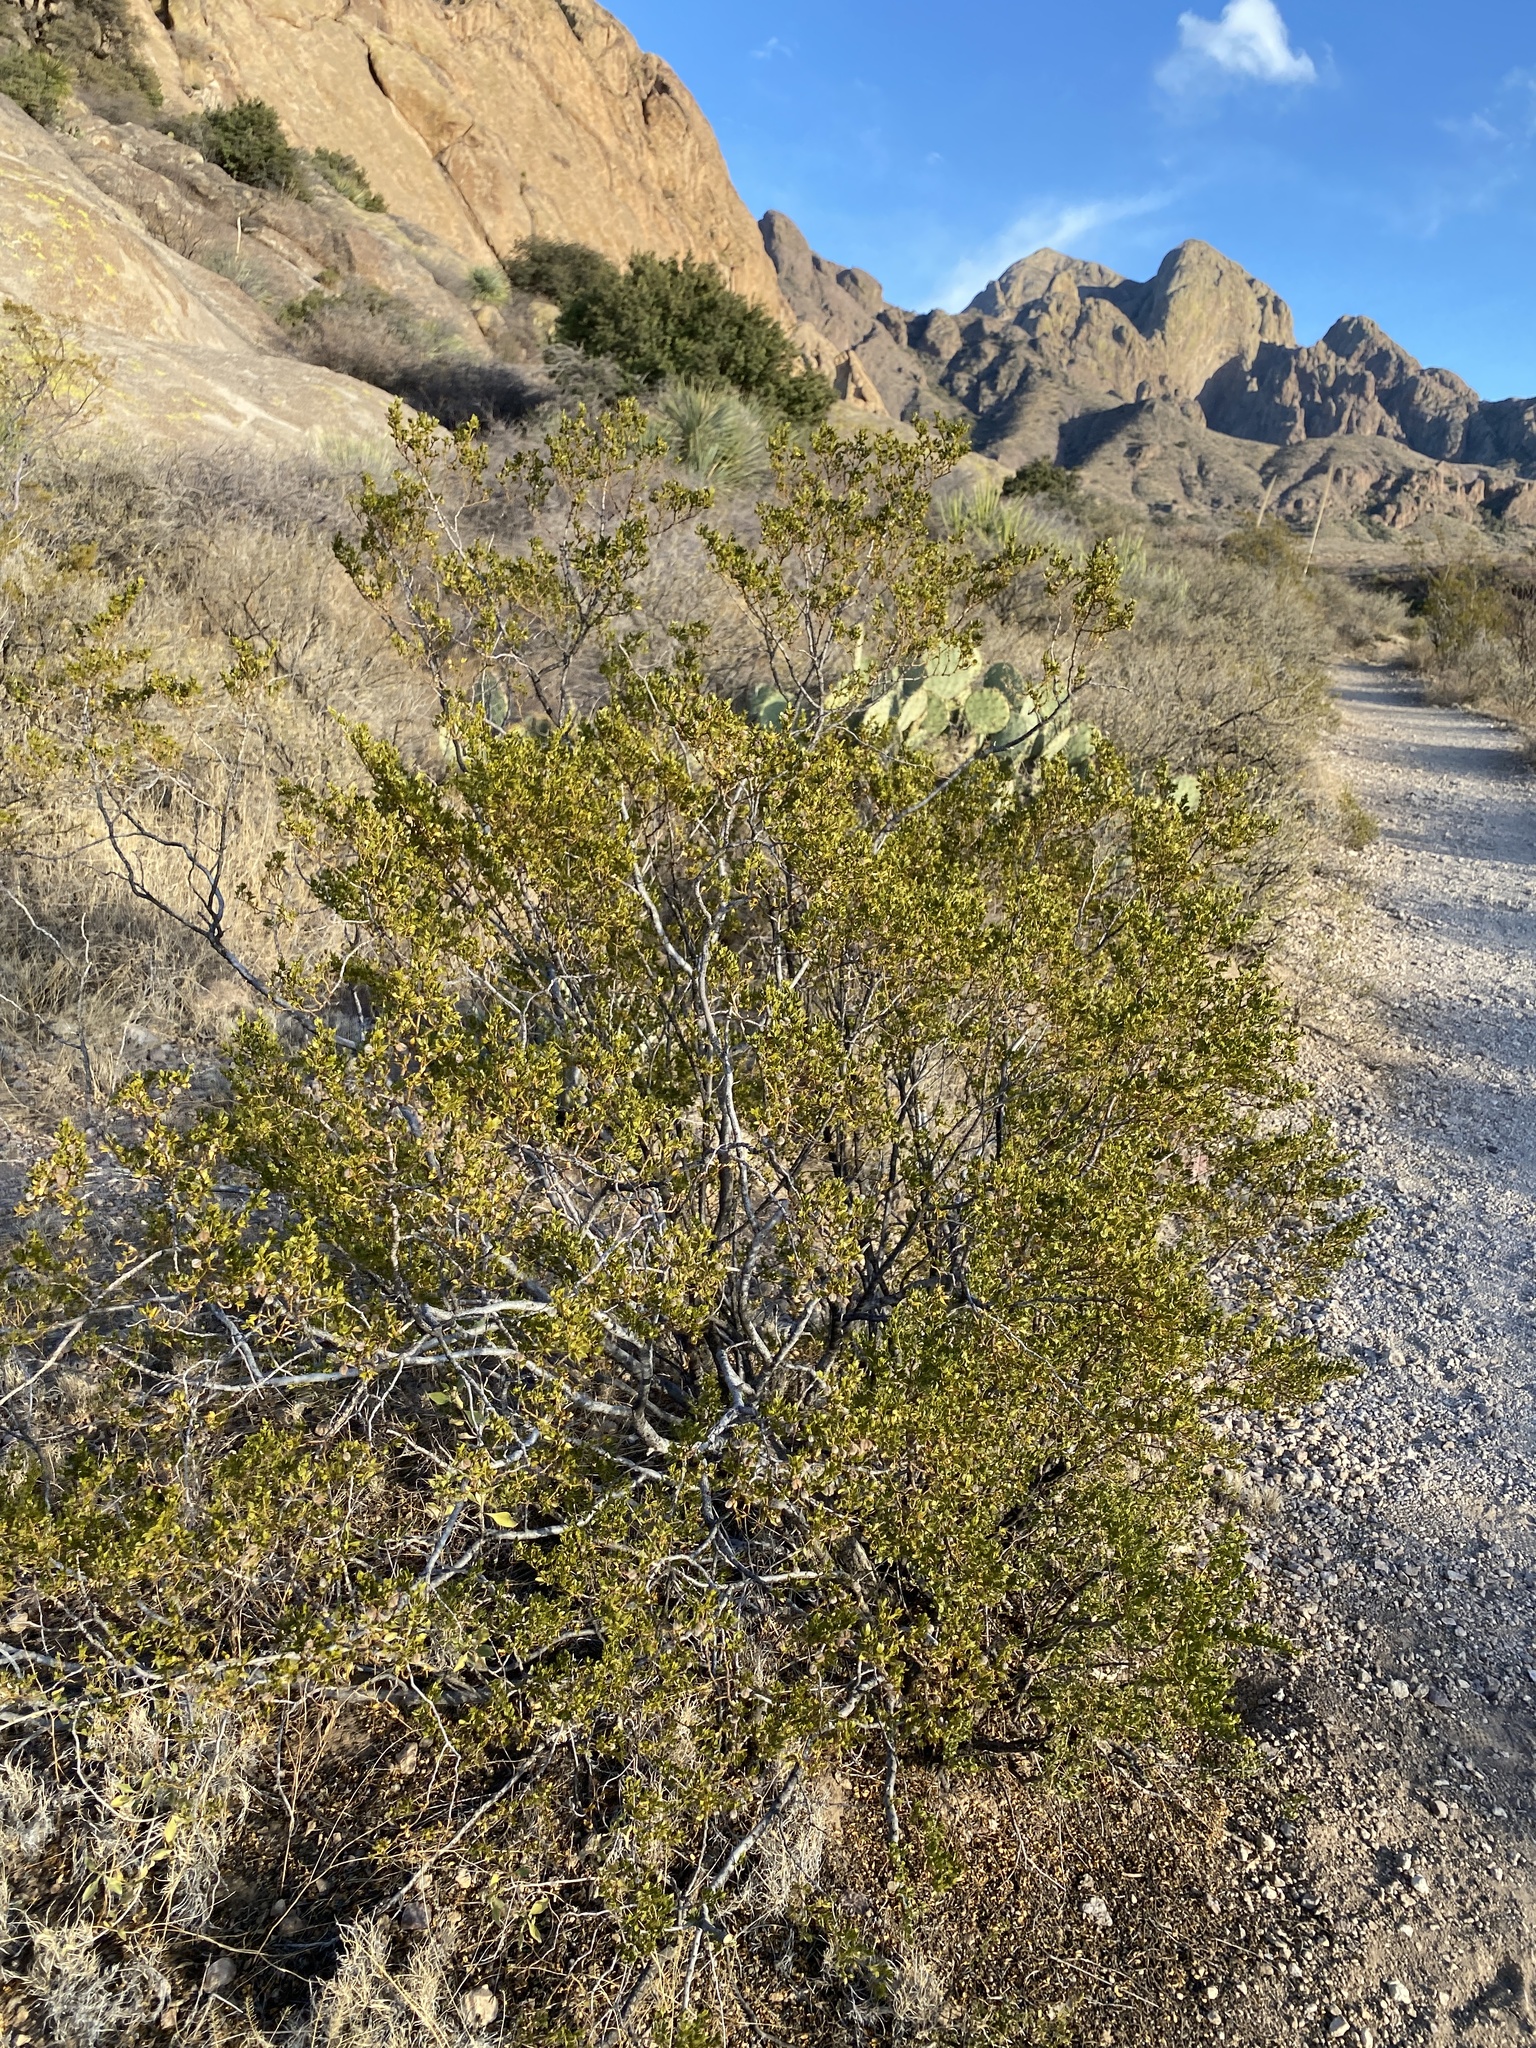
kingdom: Plantae
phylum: Tracheophyta
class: Magnoliopsida
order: Zygophyllales
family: Zygophyllaceae
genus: Larrea
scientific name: Larrea tridentata
